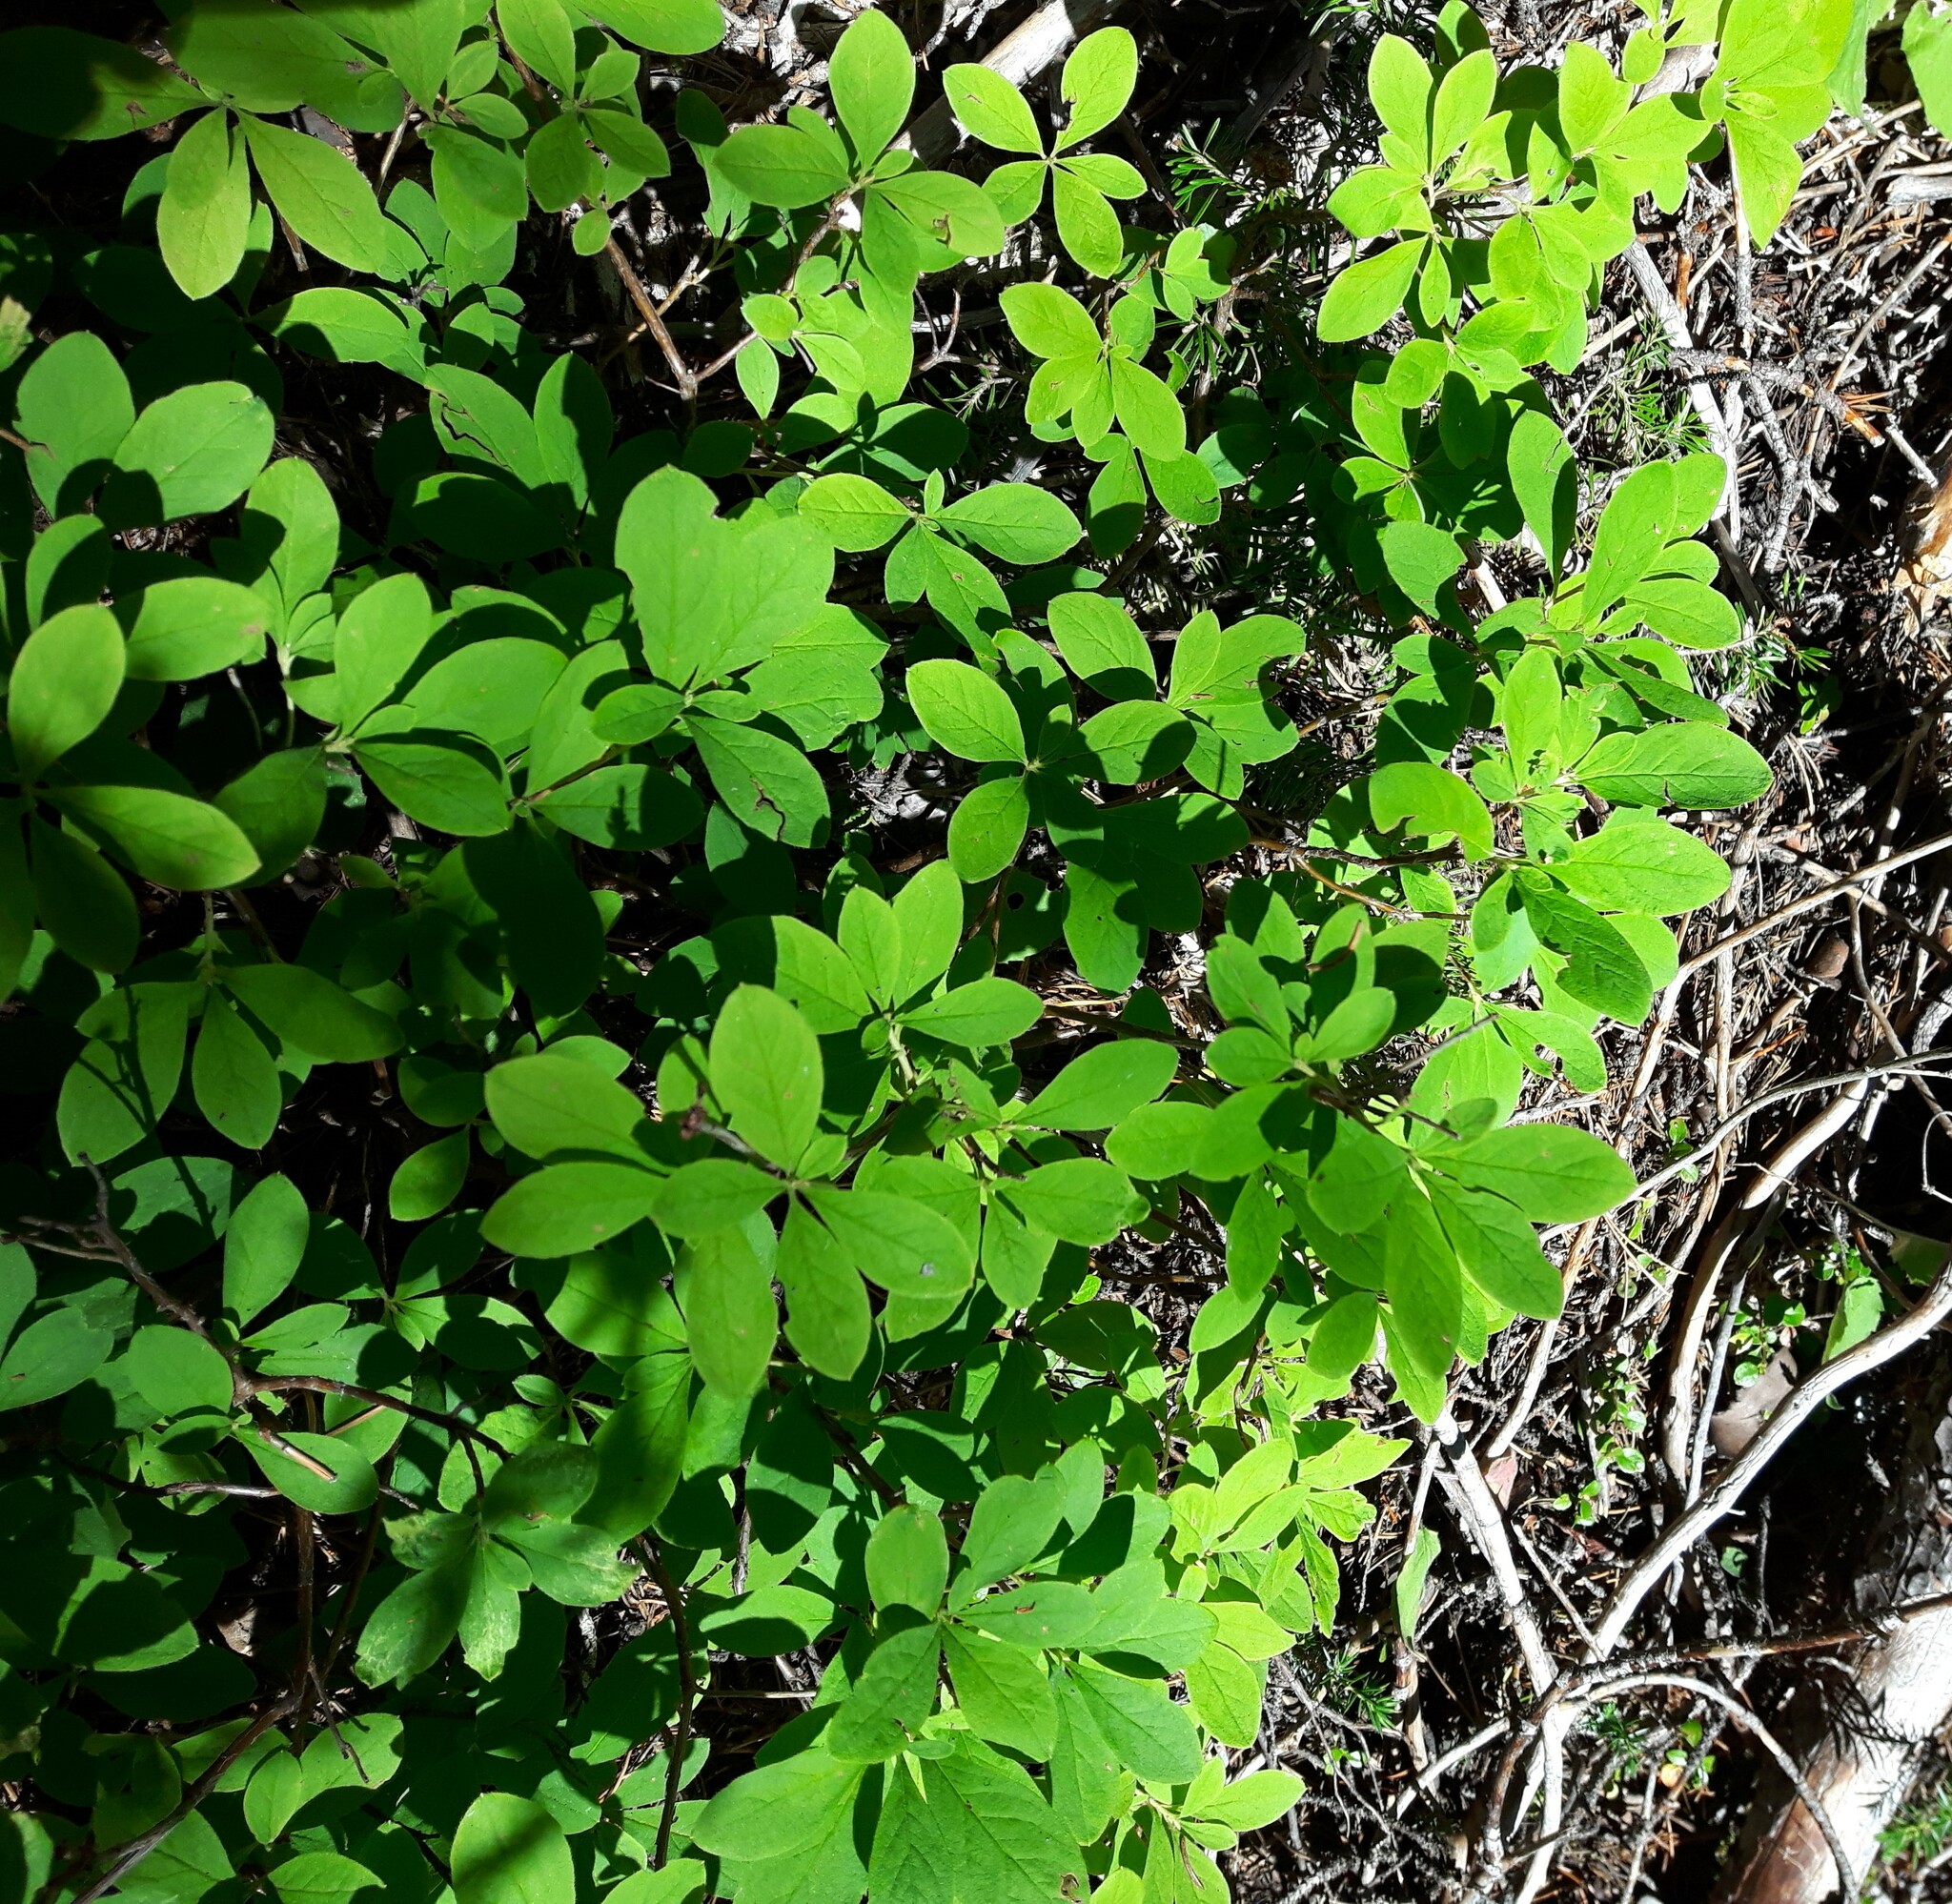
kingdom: Plantae
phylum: Tracheophyta
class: Magnoliopsida
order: Ericales
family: Ericaceae
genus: Rhododendron
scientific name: Rhododendron menziesii
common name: Pacific menziesia
